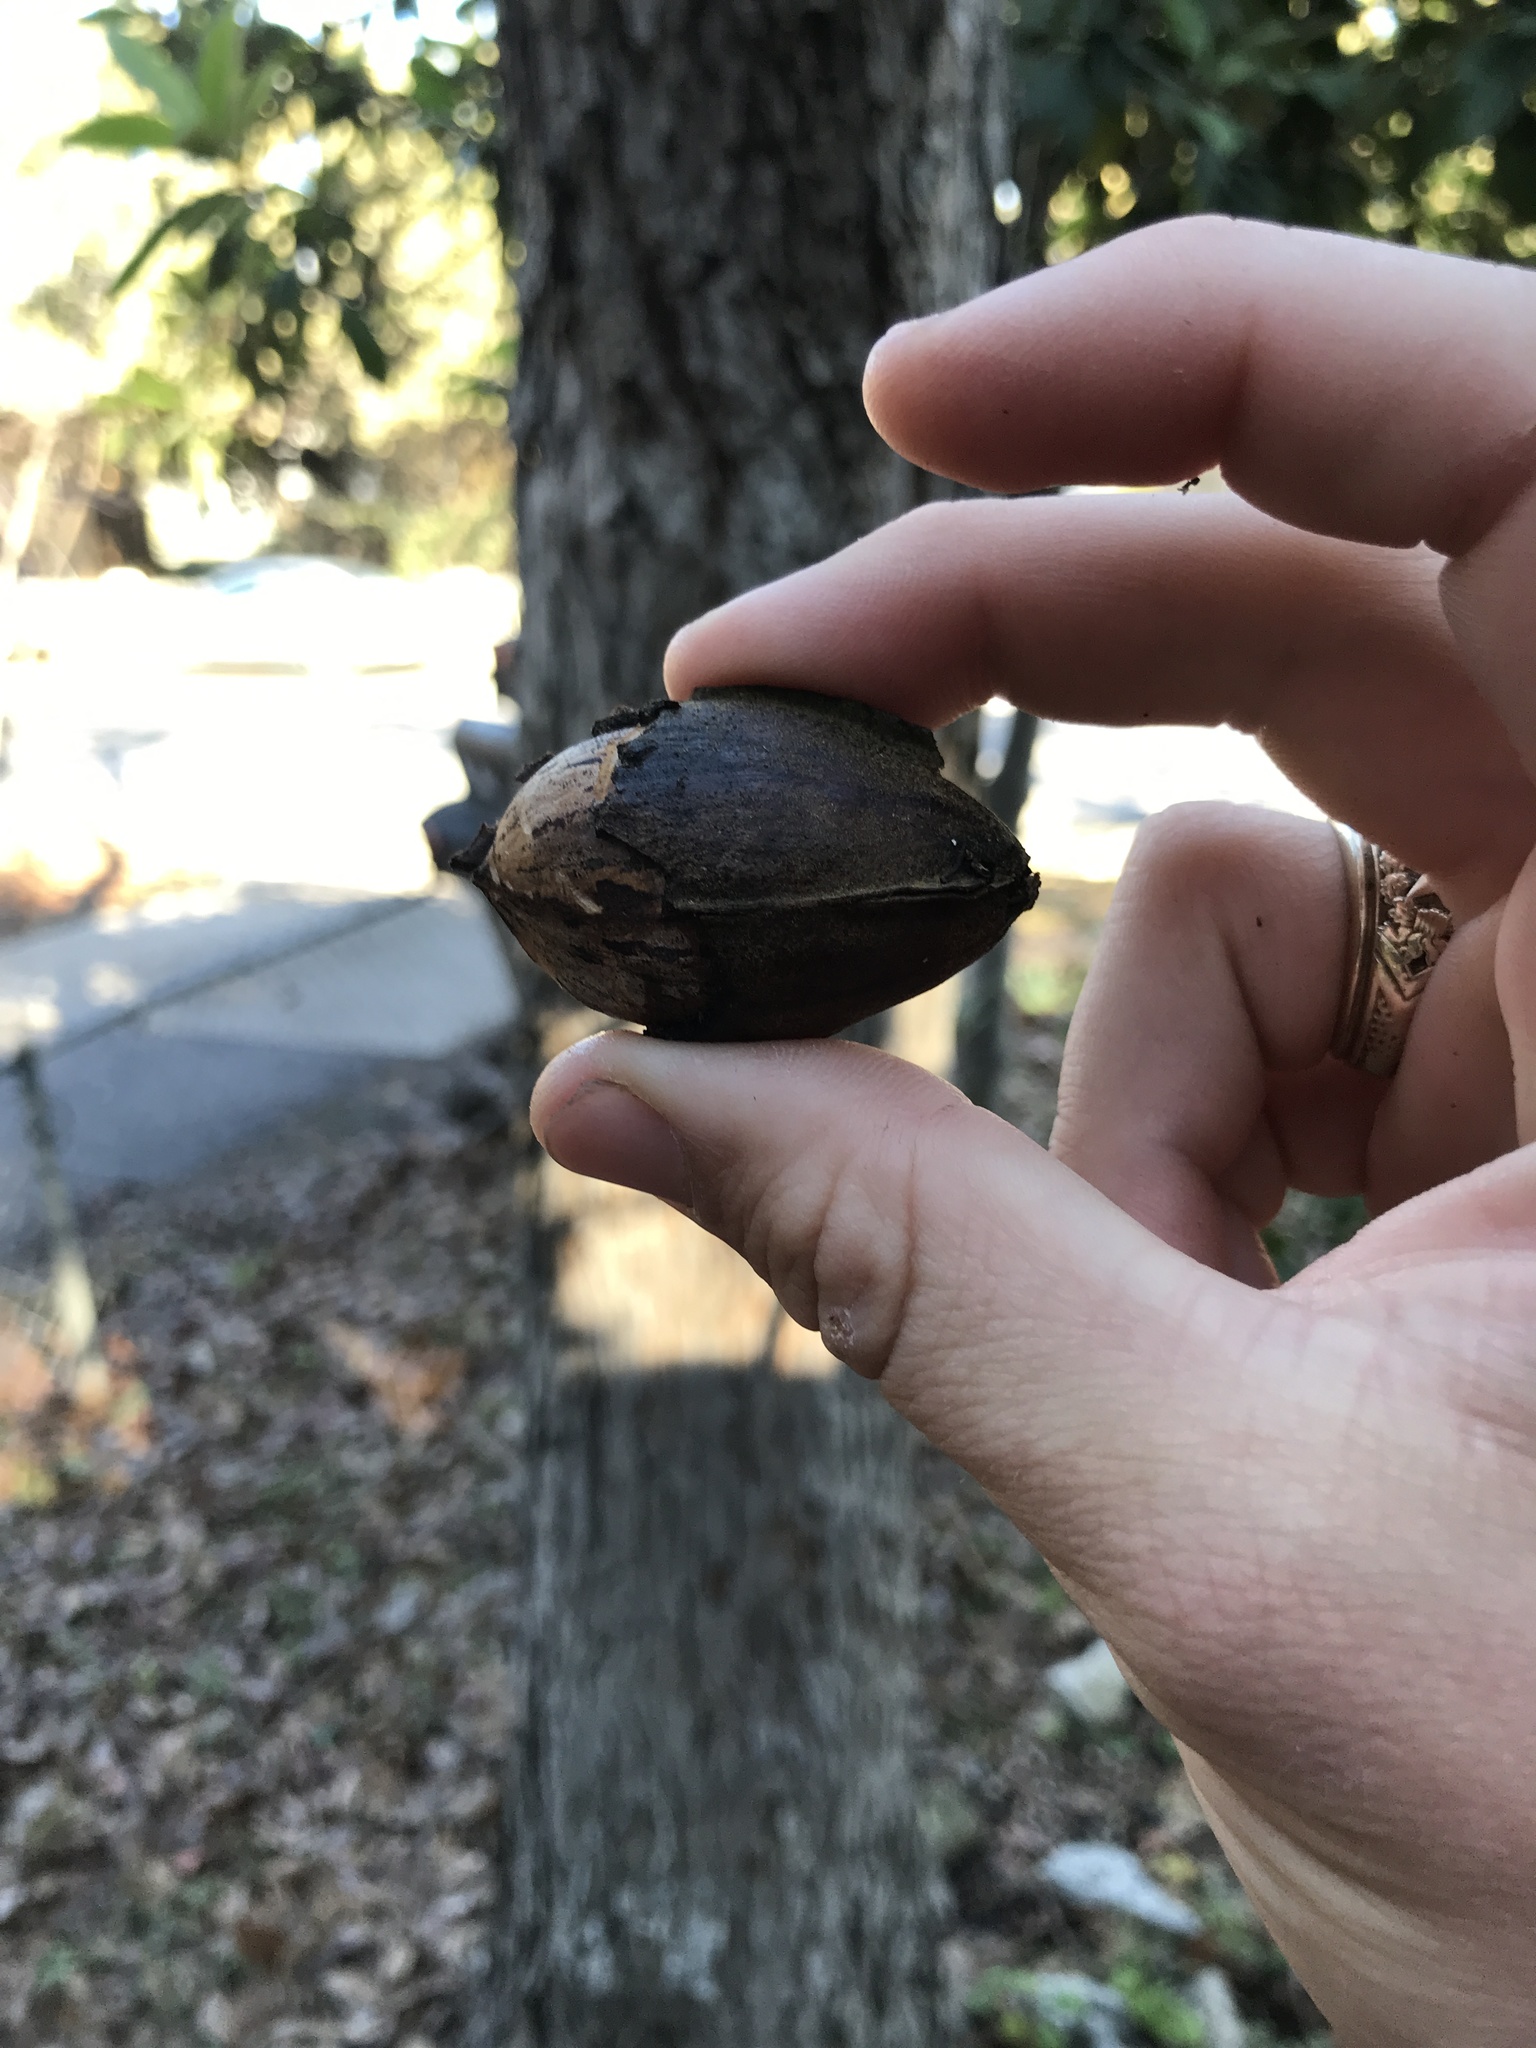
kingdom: Plantae
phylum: Tracheophyta
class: Magnoliopsida
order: Fagales
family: Juglandaceae
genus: Carya
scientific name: Carya illinoinensis
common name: Pecan
